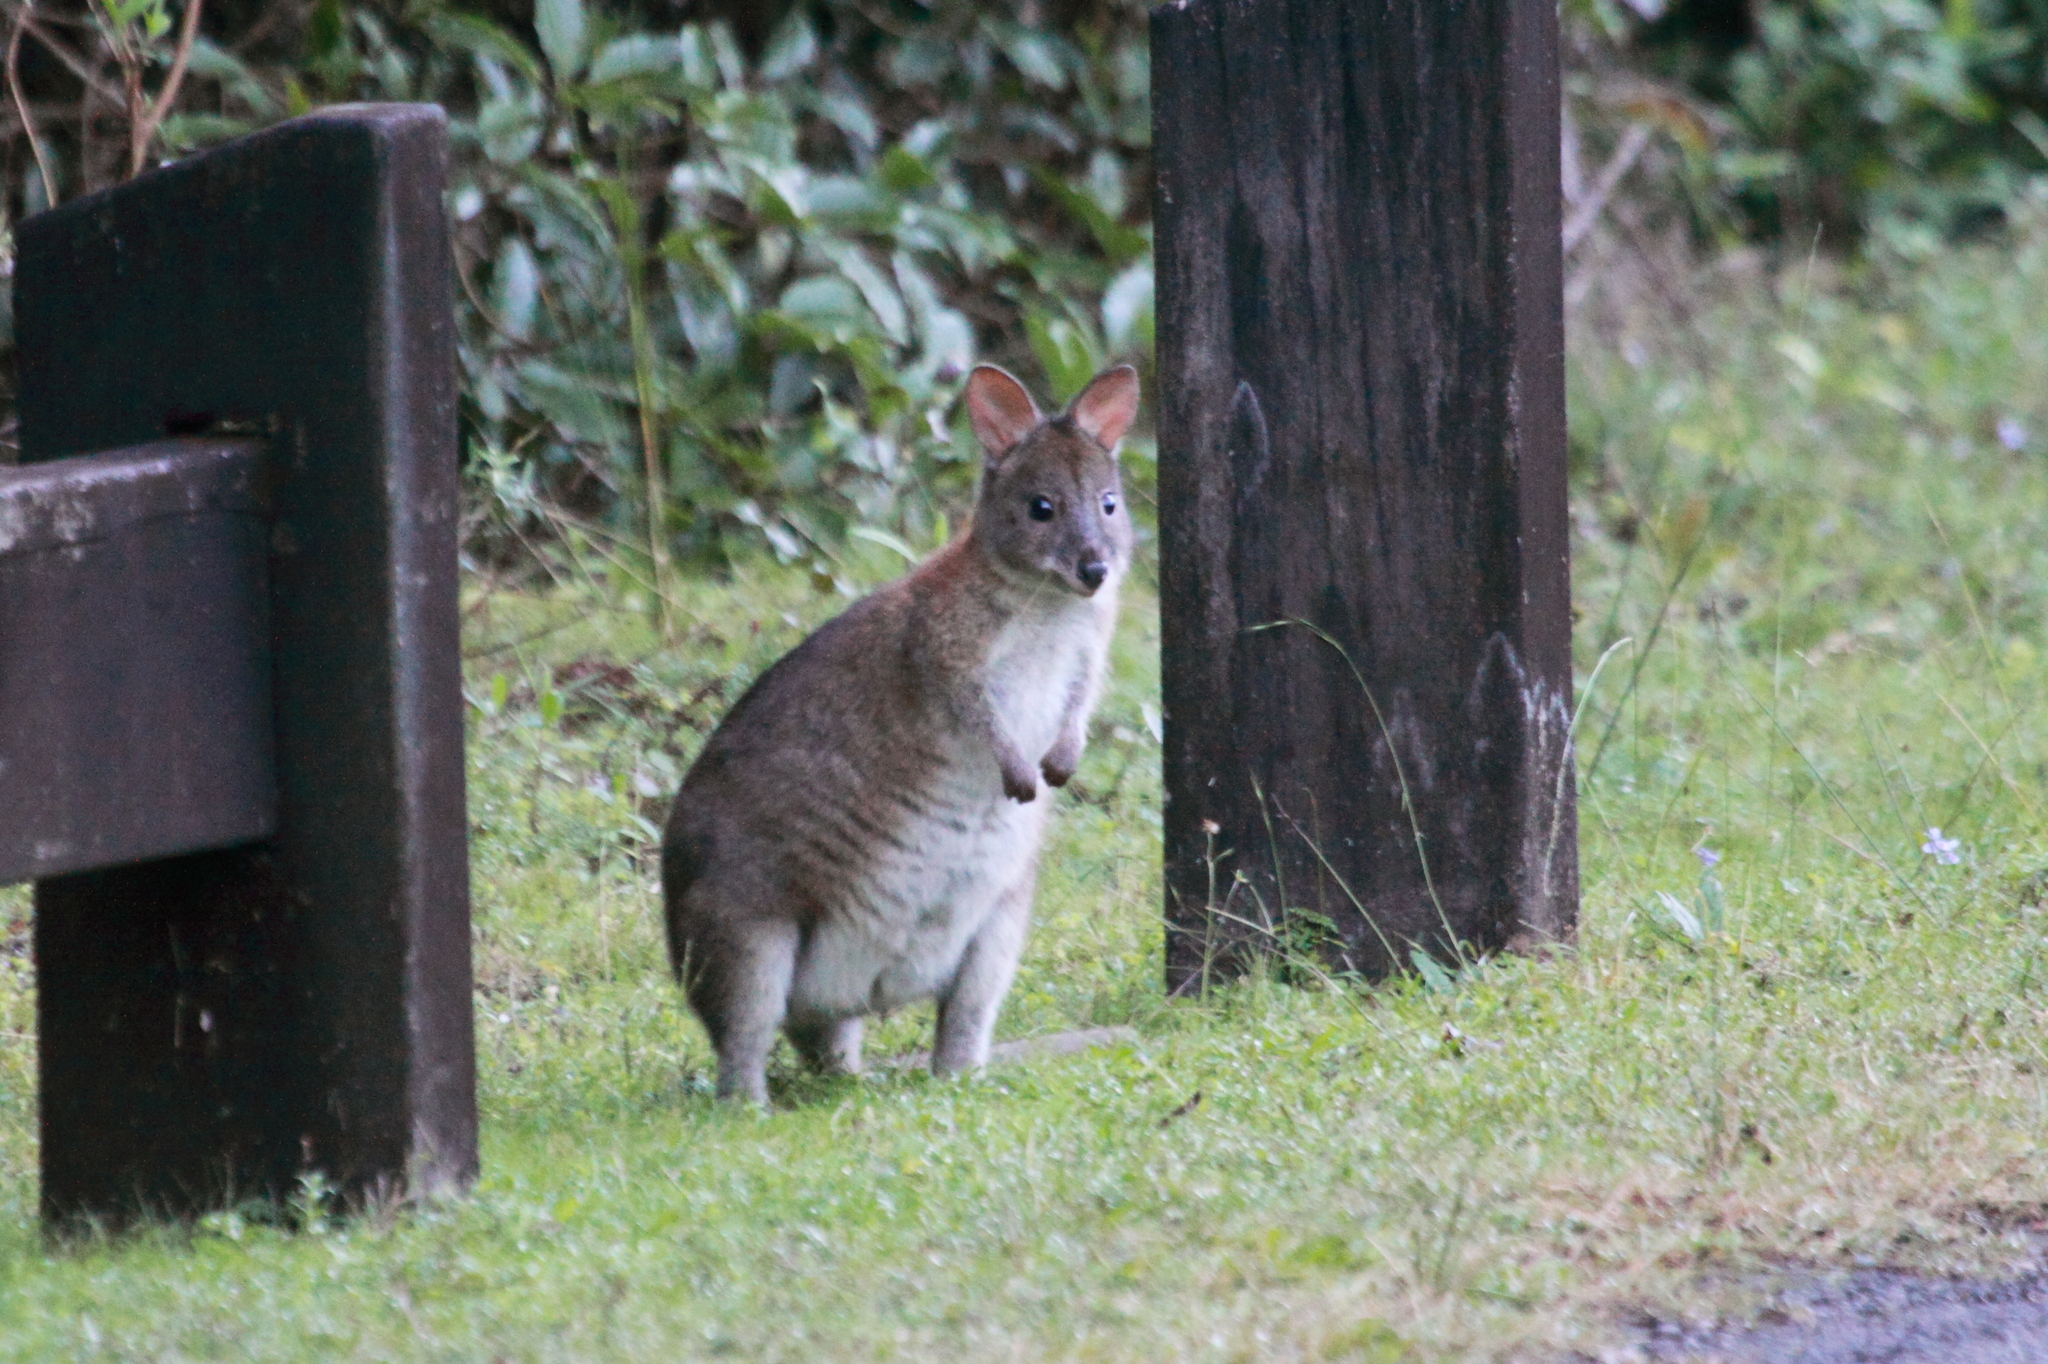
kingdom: Animalia
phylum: Chordata
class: Mammalia
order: Diprotodontia
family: Macropodidae
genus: Thylogale
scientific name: Thylogale thetis
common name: Red-necked pademelon
